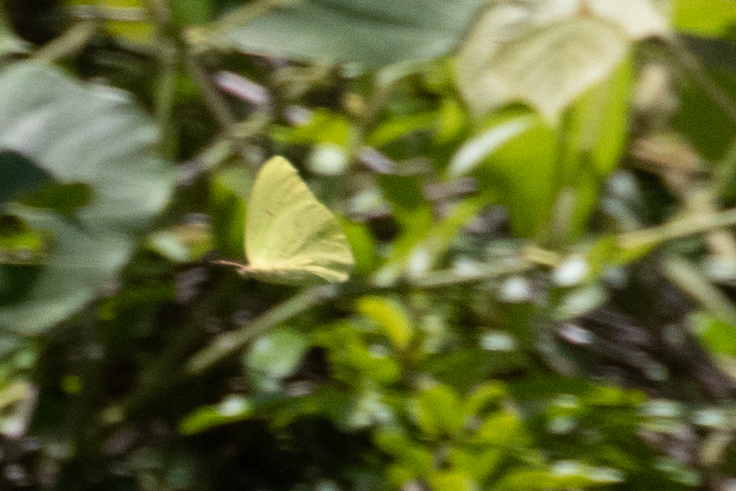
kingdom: Animalia
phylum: Arthropoda
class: Insecta
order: Lepidoptera
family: Pieridae
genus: Phoebis
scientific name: Phoebis sennae
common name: Cloudless sulphur
